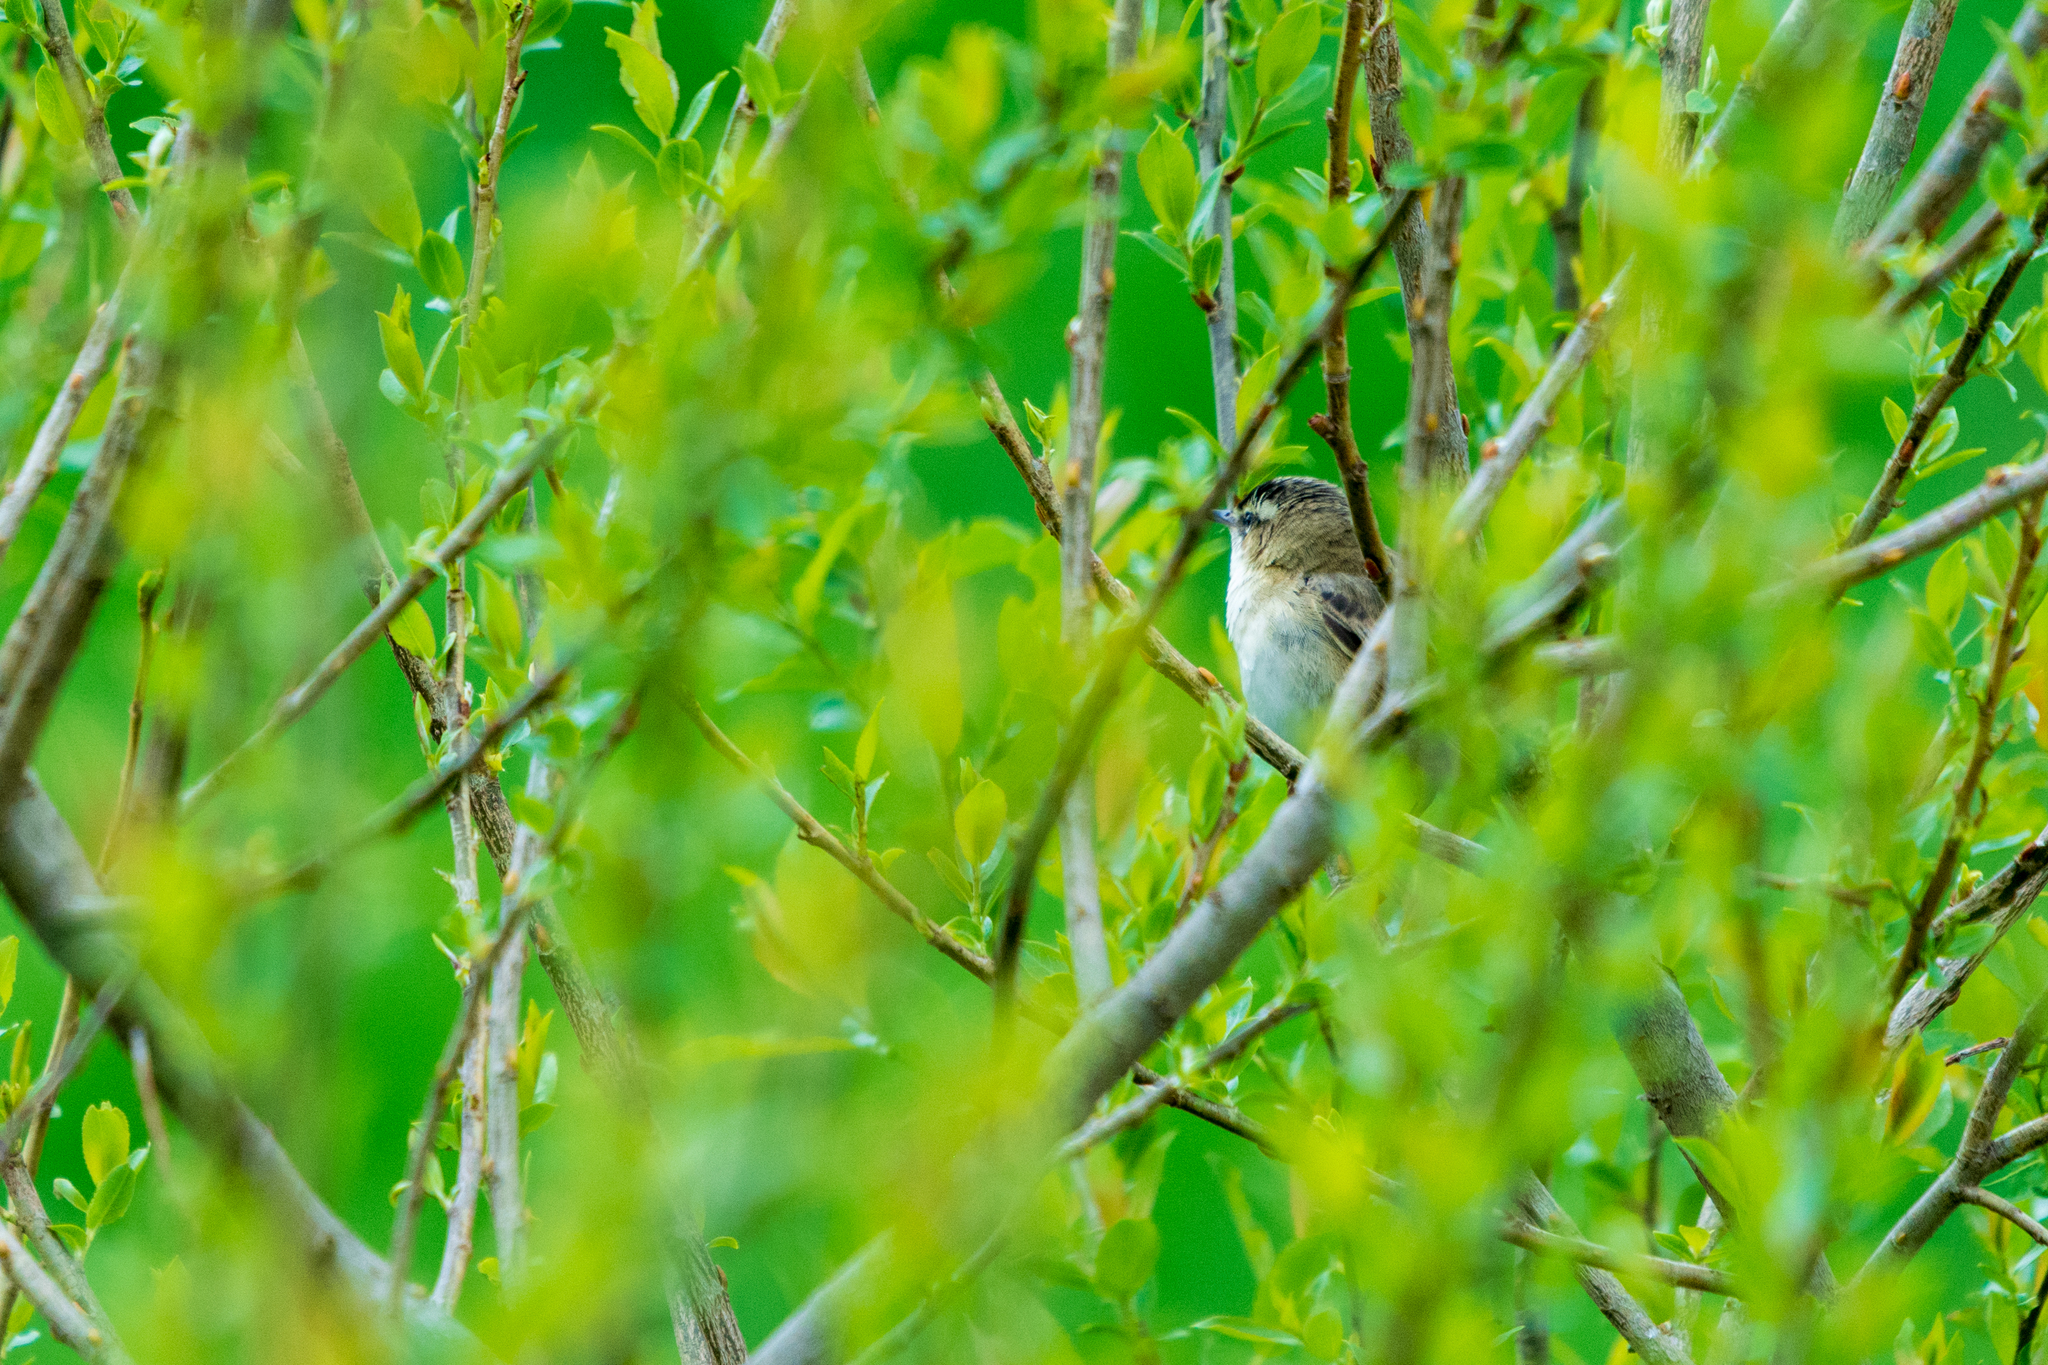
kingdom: Animalia
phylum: Chordata
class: Aves
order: Passeriformes
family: Acrocephalidae
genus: Acrocephalus
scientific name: Acrocephalus schoenobaenus
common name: Sedge warbler
